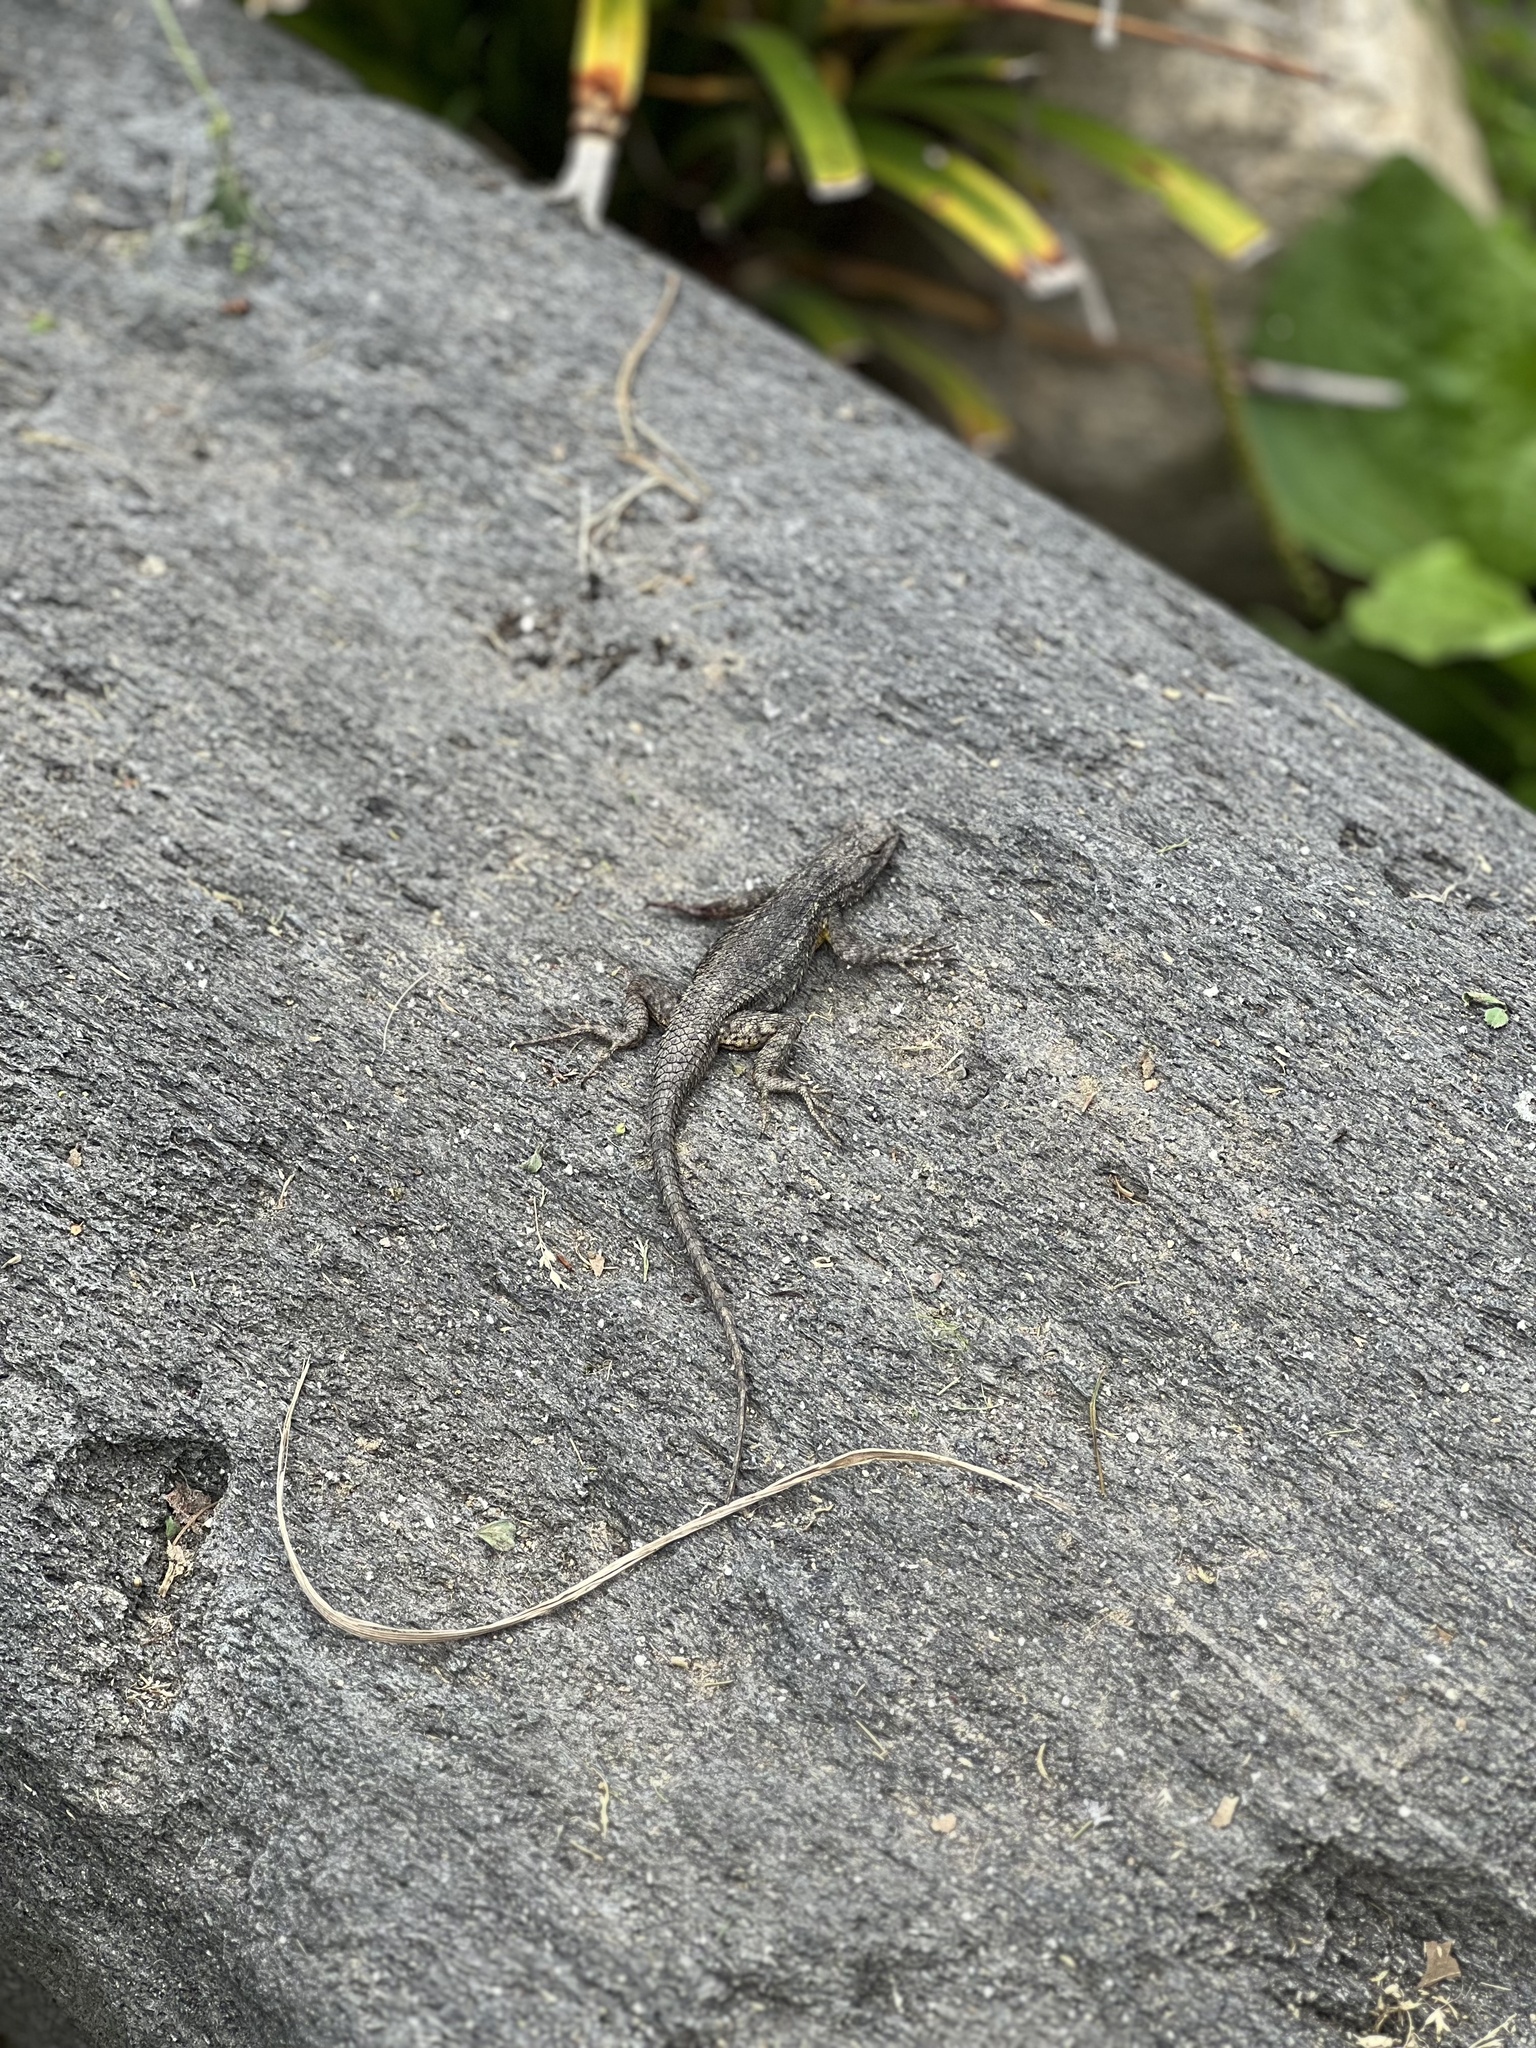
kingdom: Animalia
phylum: Chordata
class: Squamata
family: Phrynosomatidae
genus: Sceloporus
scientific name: Sceloporus occidentalis
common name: Western fence lizard
